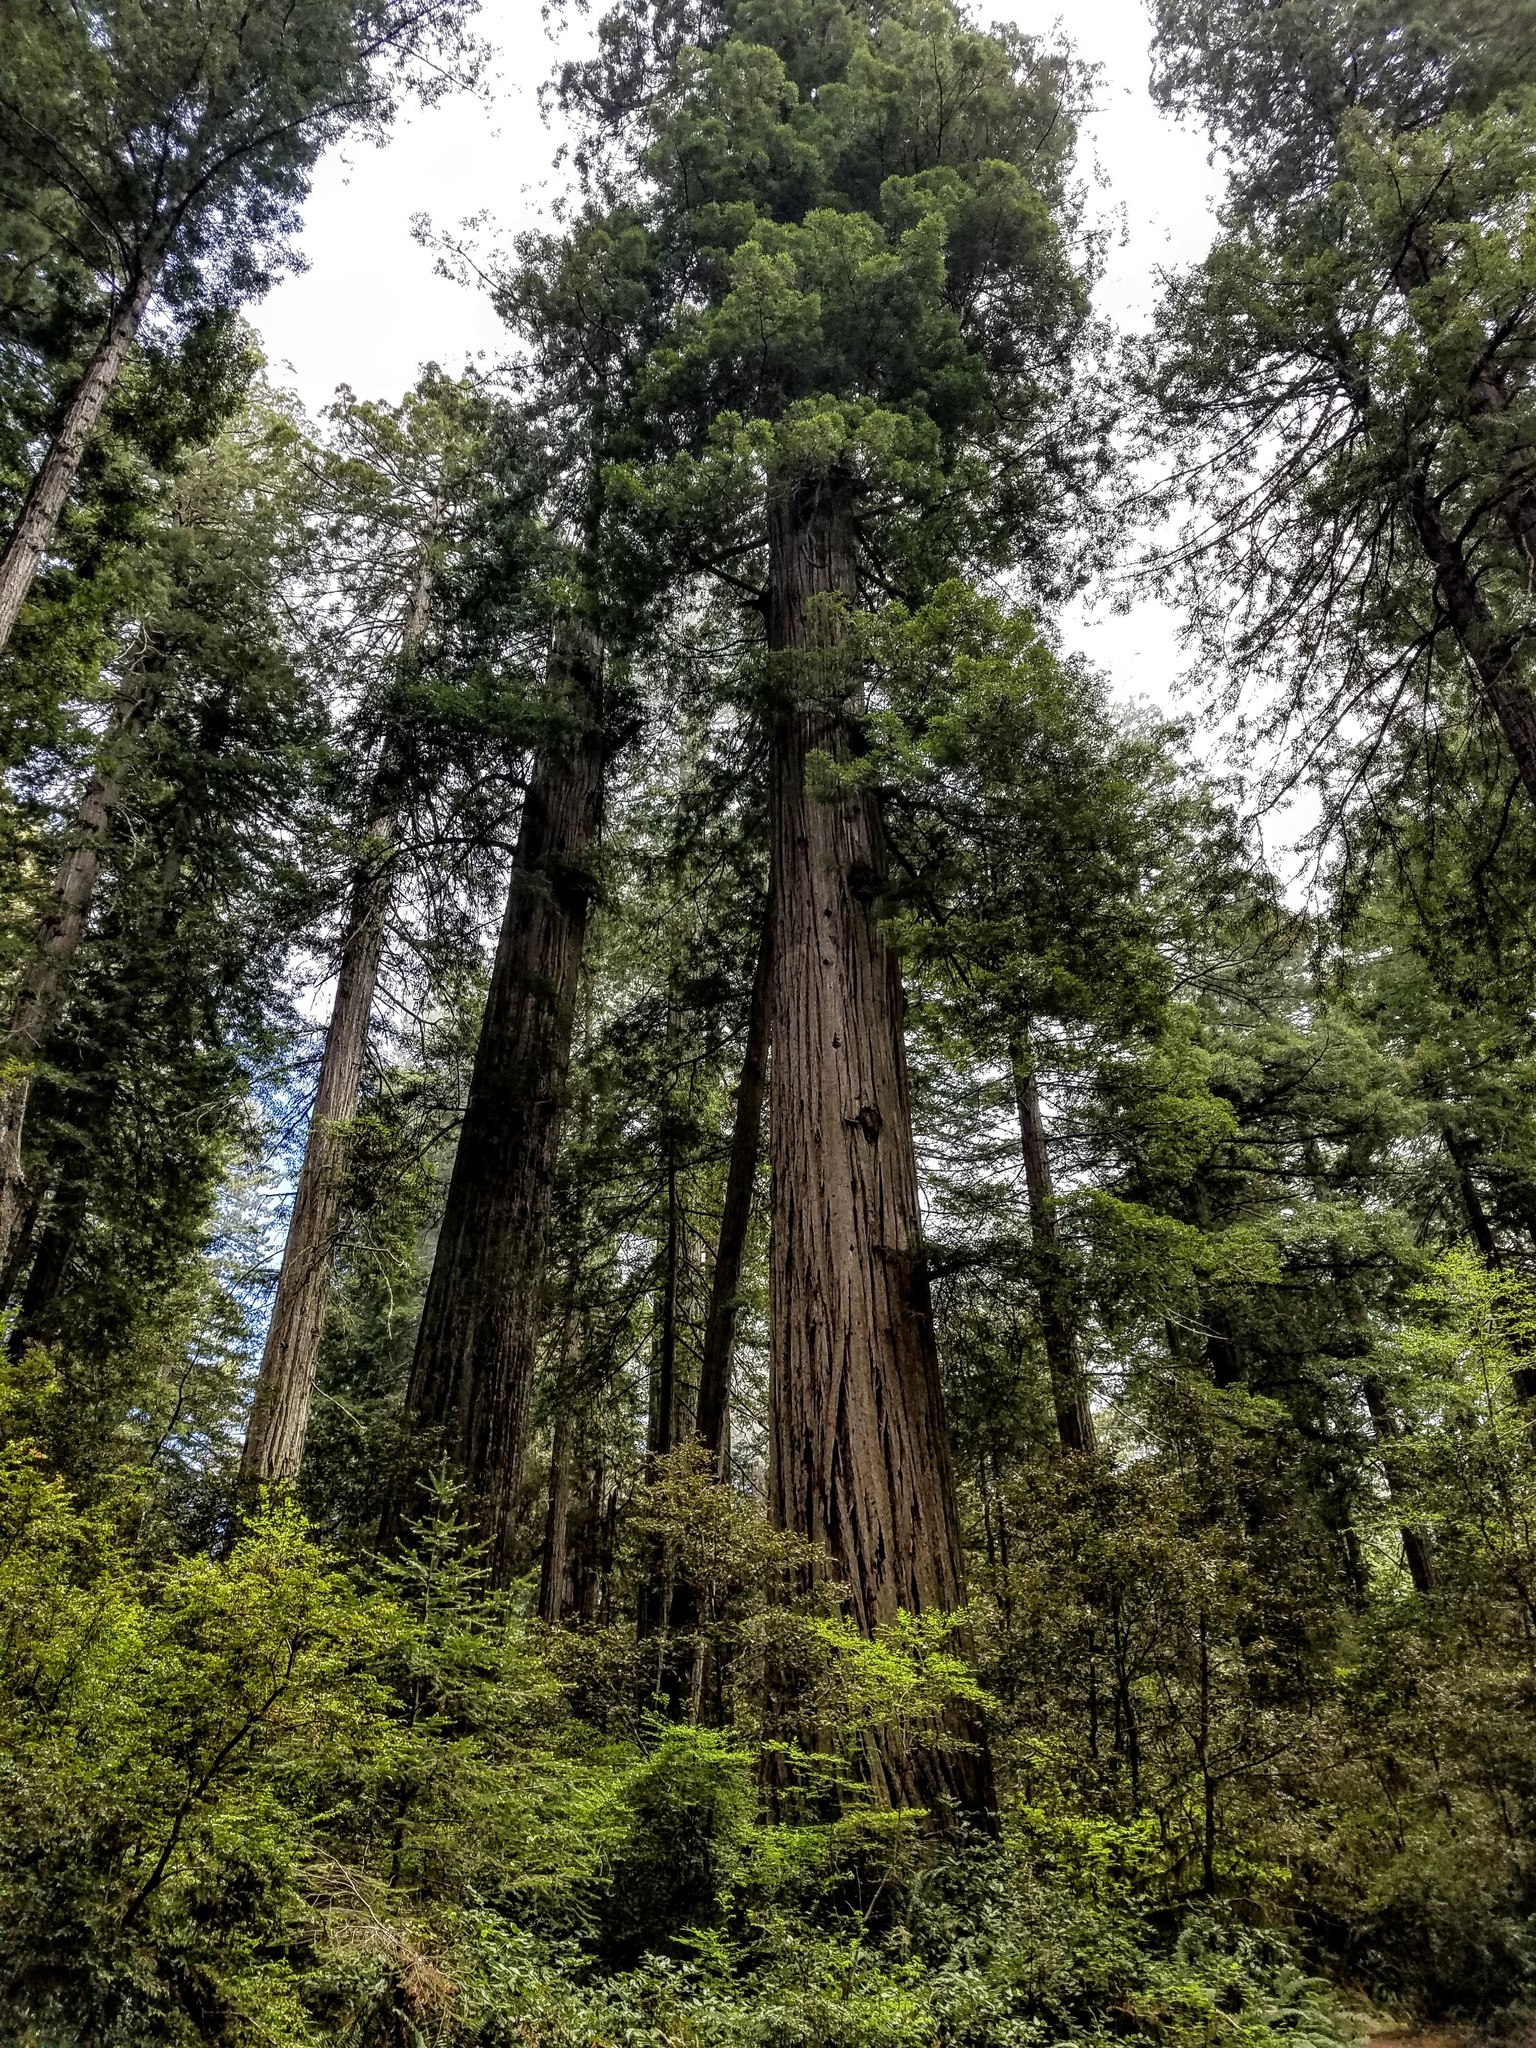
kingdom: Plantae
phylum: Tracheophyta
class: Pinopsida
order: Pinales
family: Cupressaceae
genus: Sequoia
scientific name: Sequoia sempervirens
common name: Coast redwood
